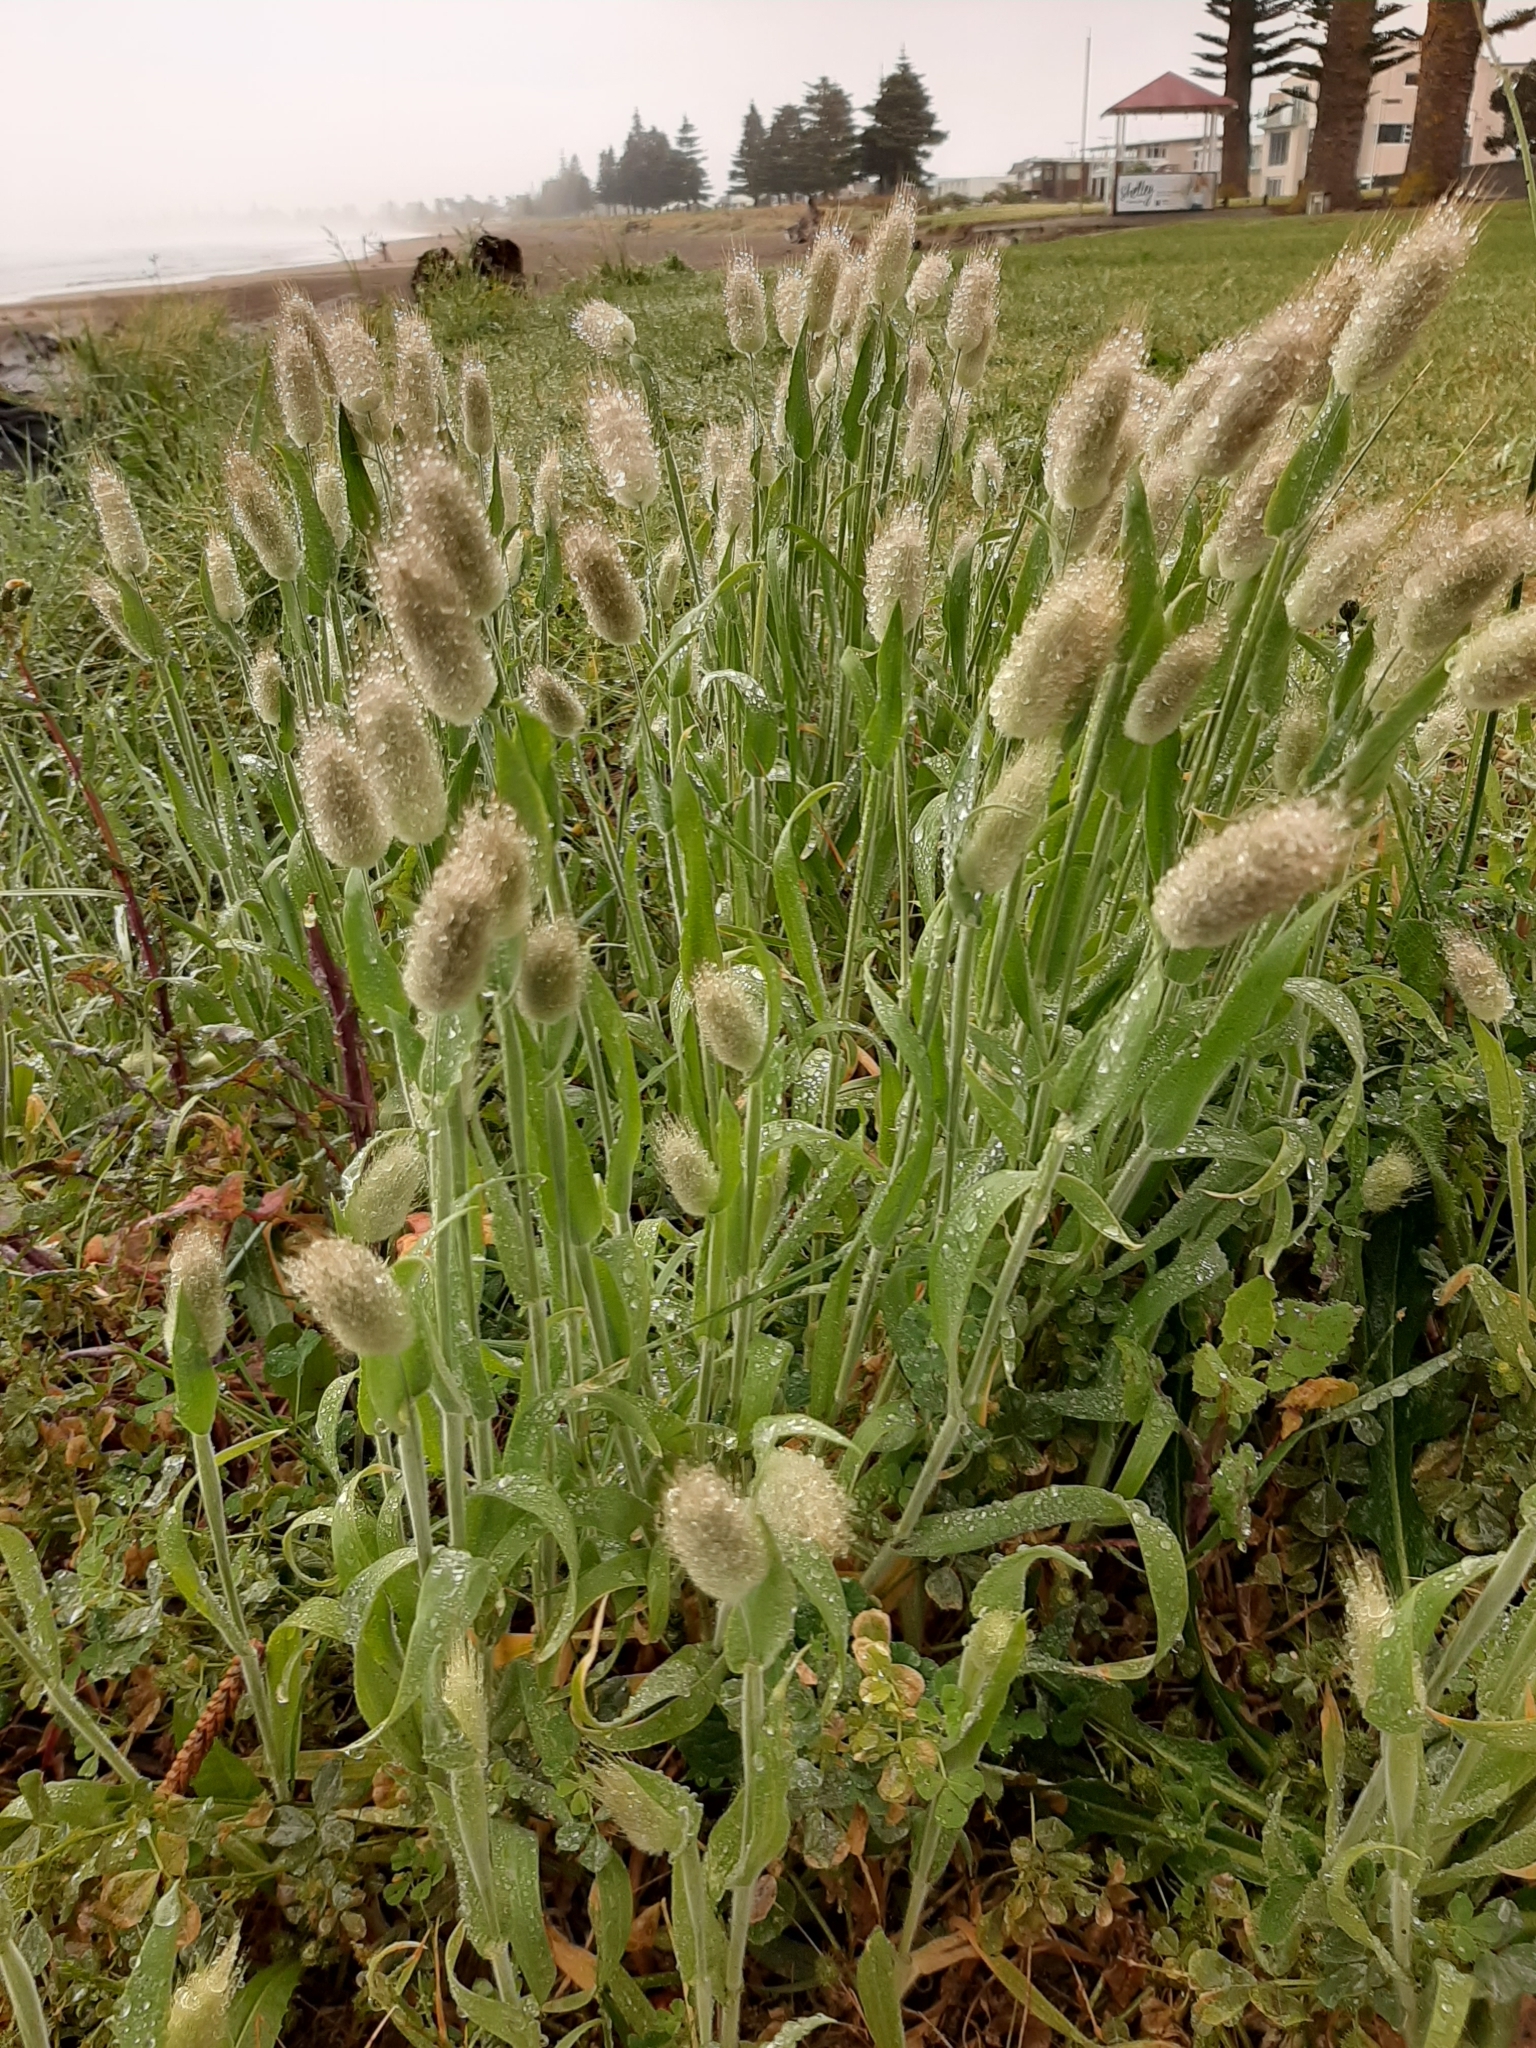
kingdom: Plantae
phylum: Tracheophyta
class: Liliopsida
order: Poales
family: Poaceae
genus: Lagurus
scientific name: Lagurus ovatus
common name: Hare's-tail
